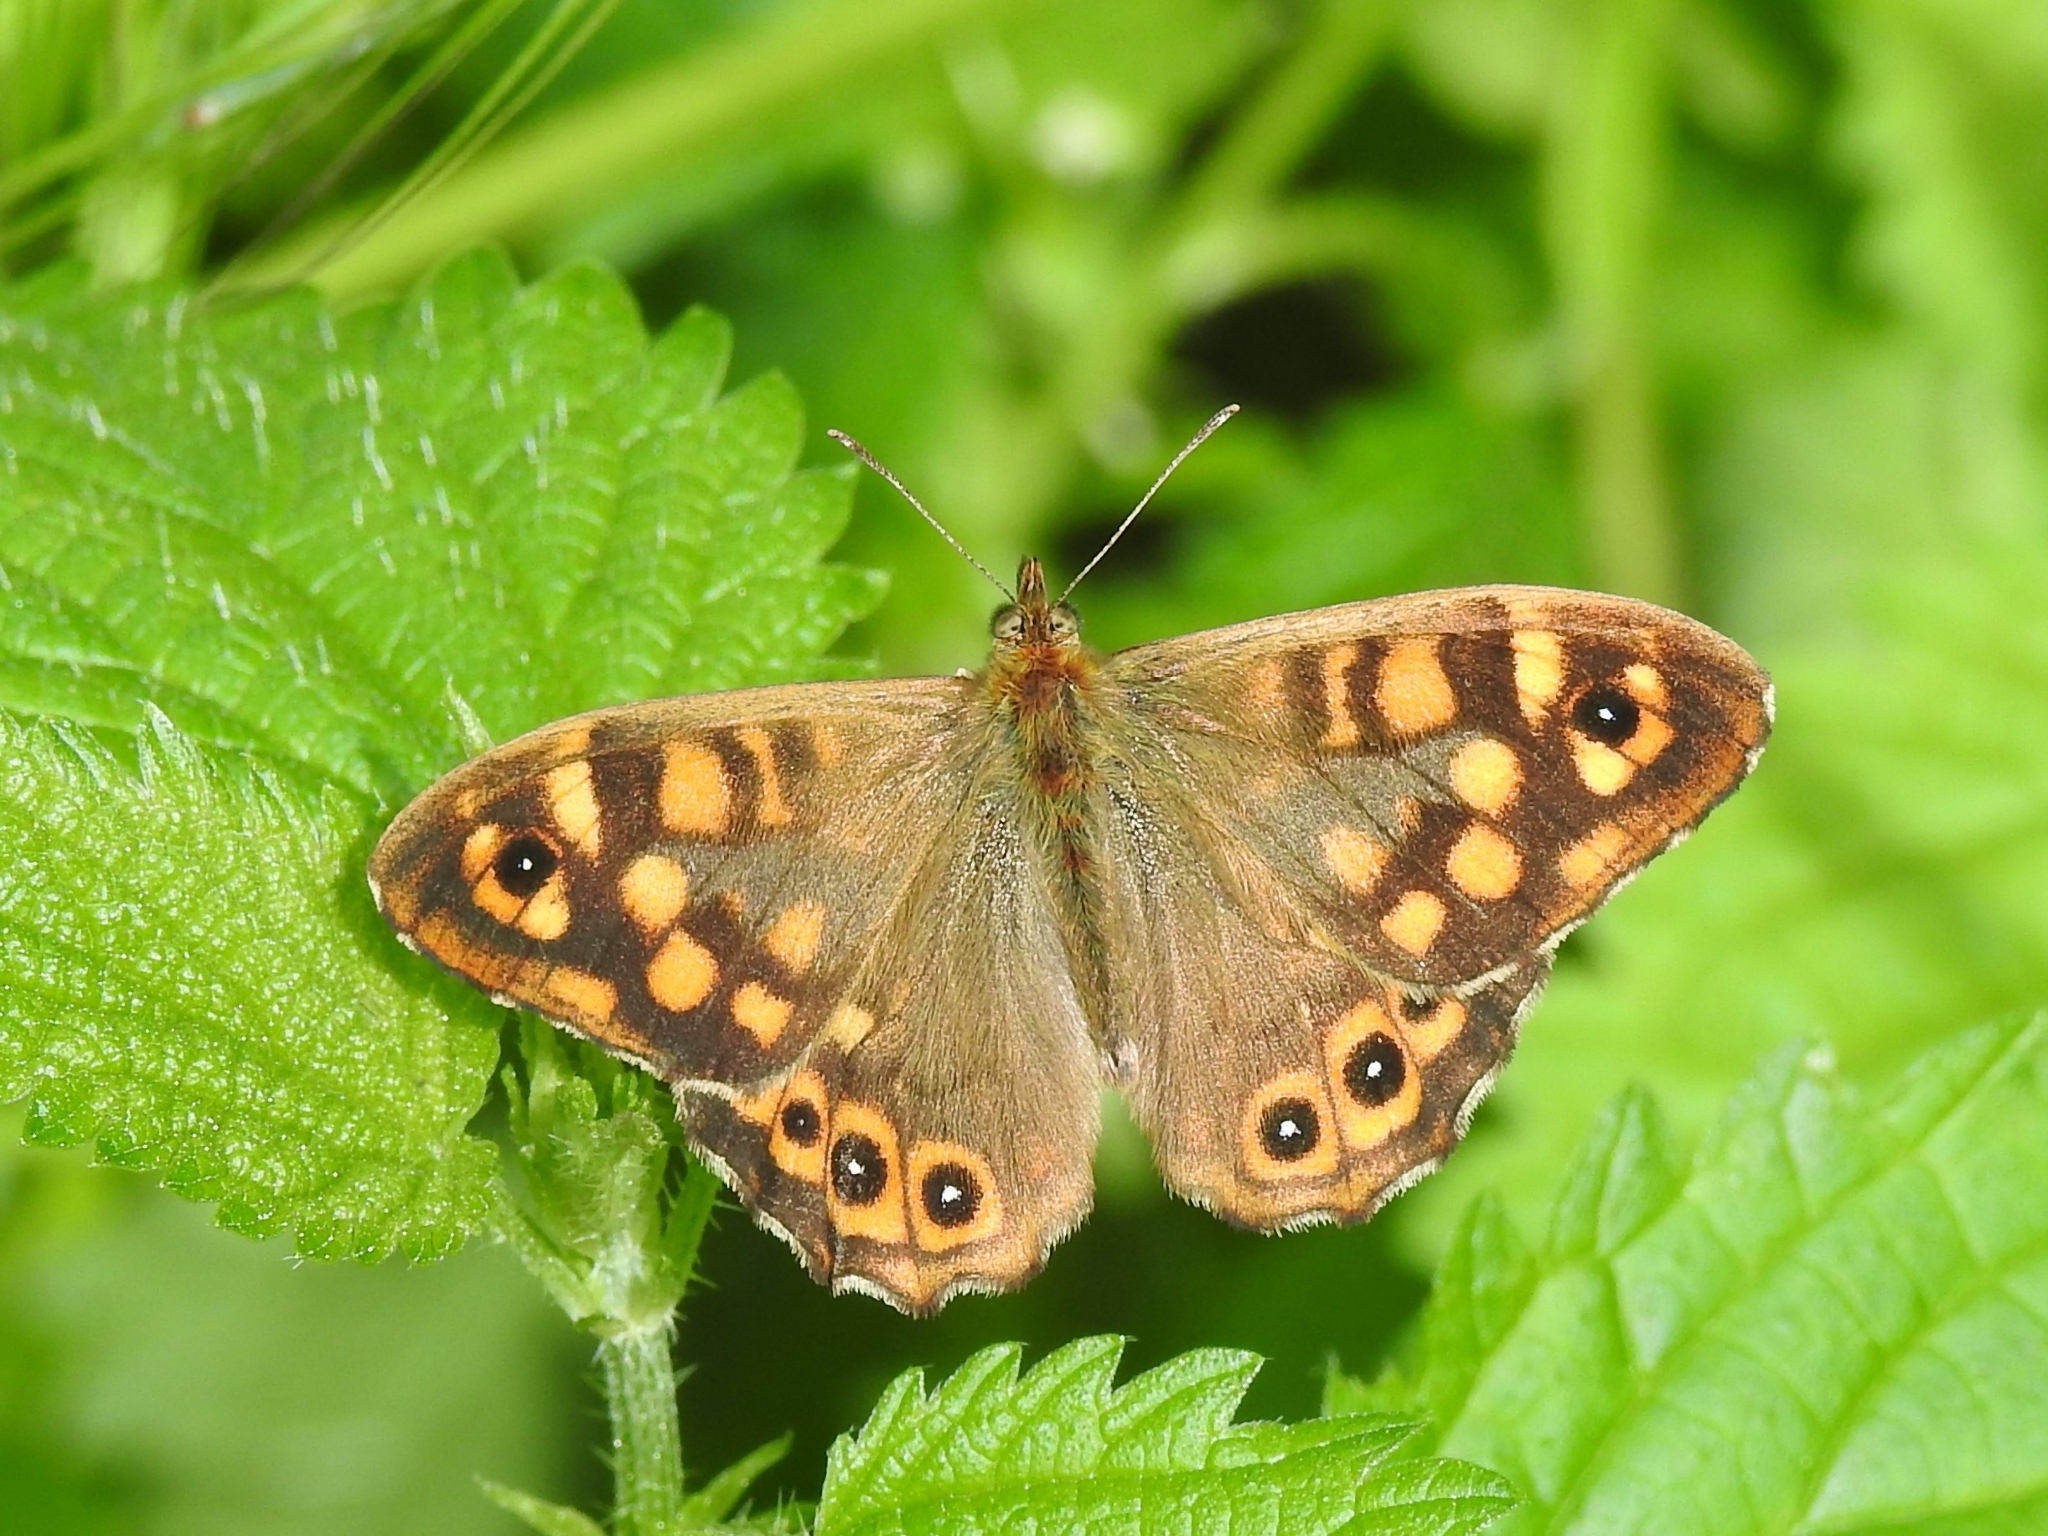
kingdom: Animalia
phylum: Arthropoda
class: Insecta
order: Lepidoptera
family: Nymphalidae
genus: Pararge
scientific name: Pararge aegeria
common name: Speckled wood
